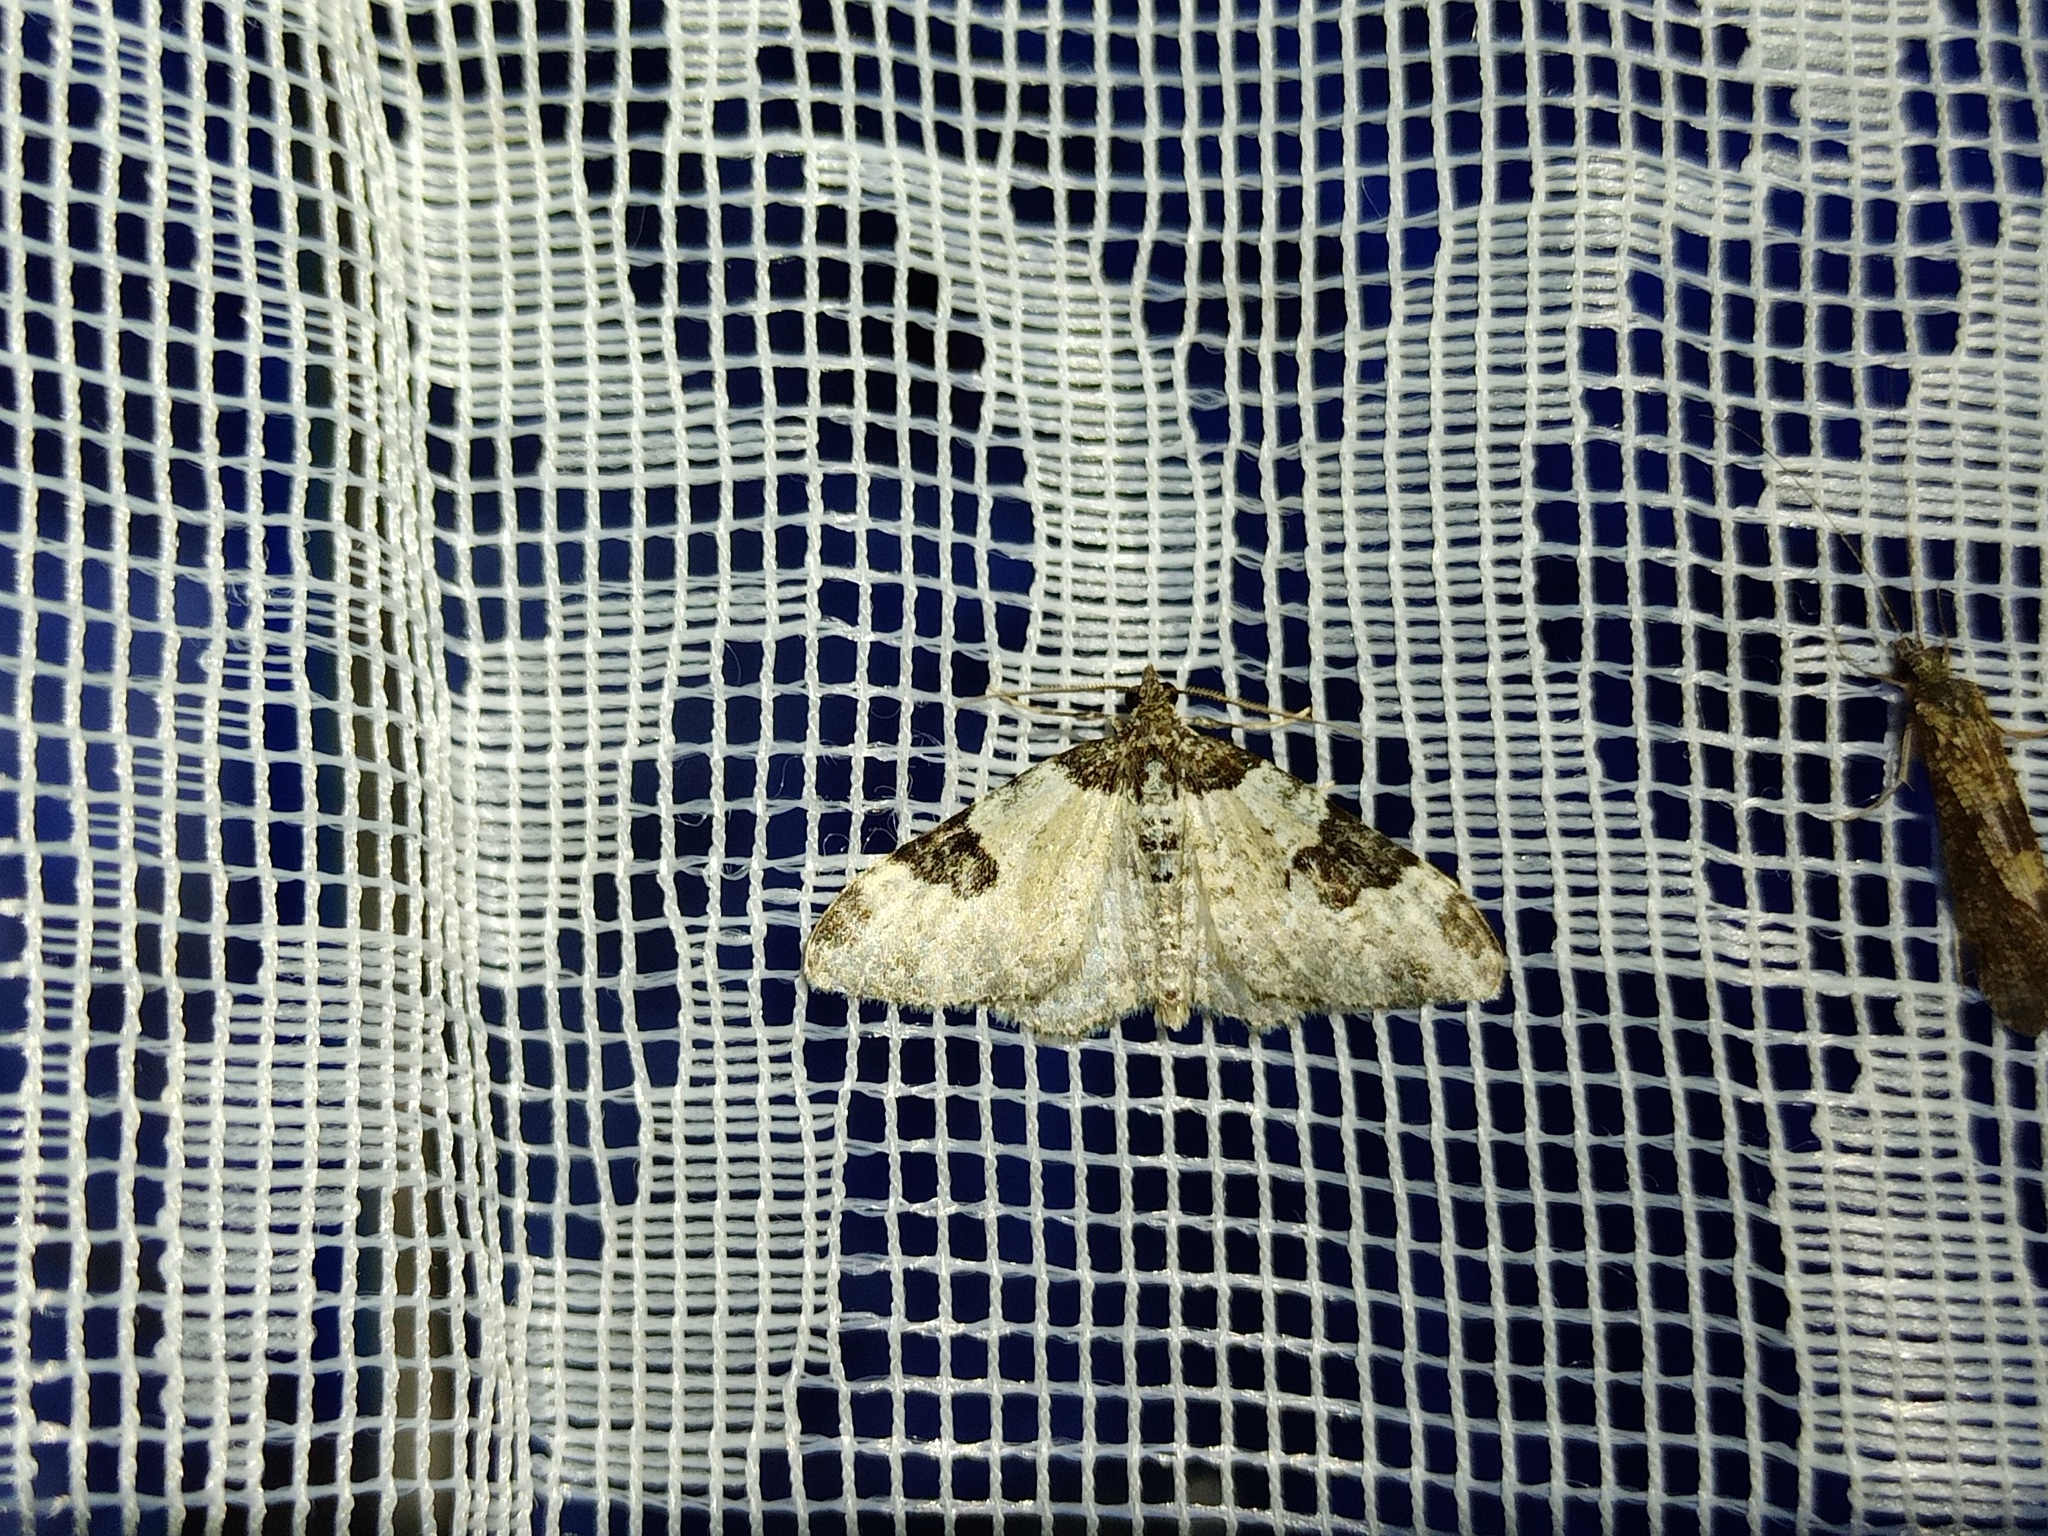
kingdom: Animalia
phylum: Arthropoda
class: Insecta
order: Lepidoptera
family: Geometridae
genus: Xanthorhoe
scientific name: Xanthorhoe fluctuata
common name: Garden carpet
